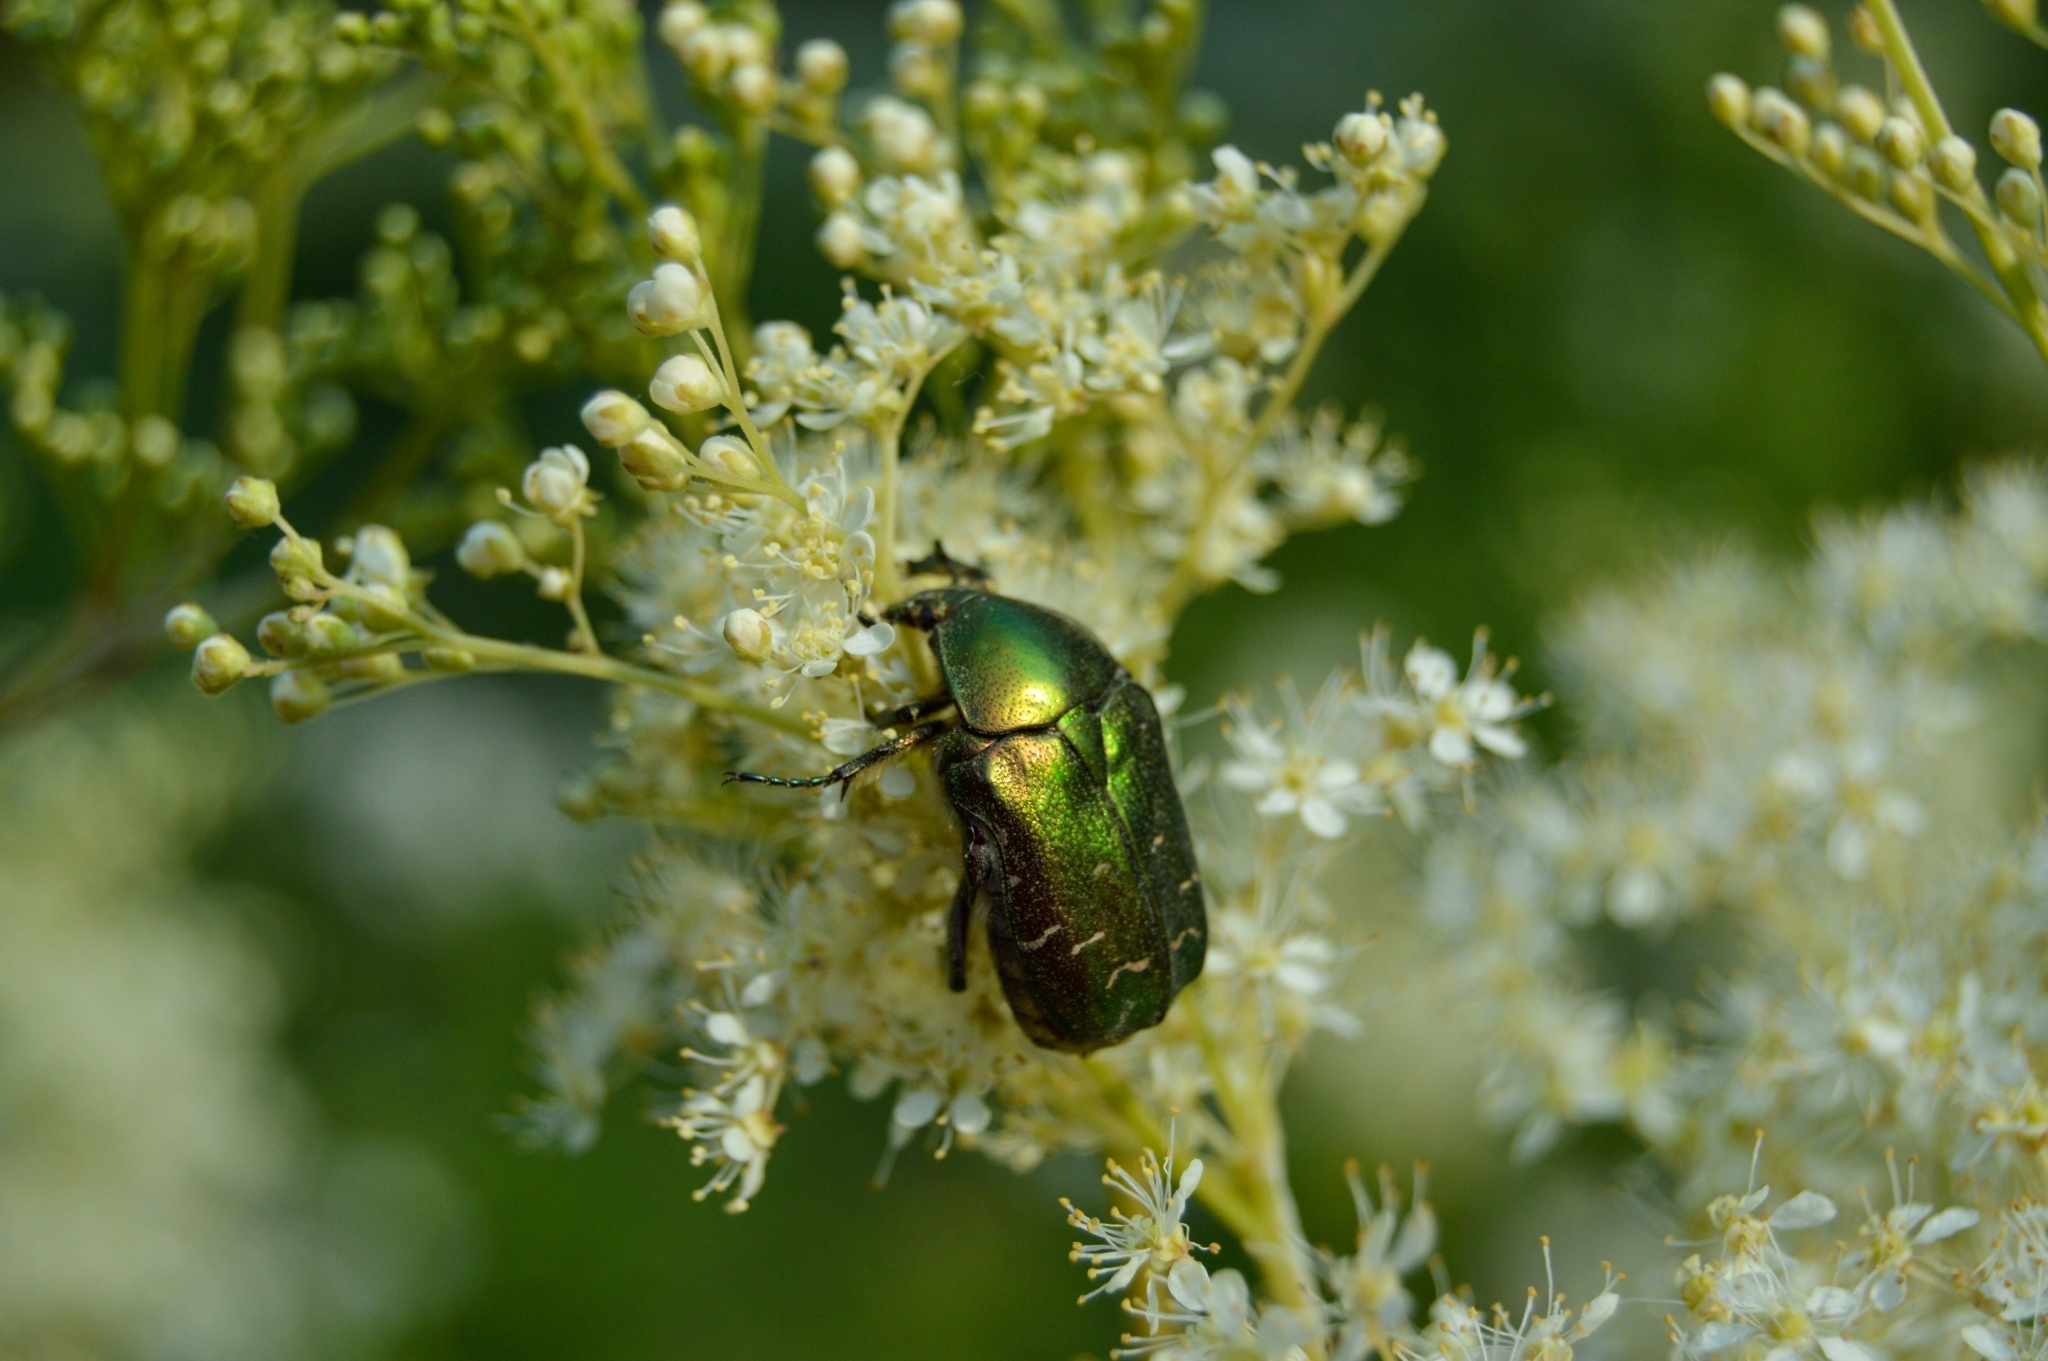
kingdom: Animalia
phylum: Arthropoda
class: Insecta
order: Coleoptera
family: Scarabaeidae
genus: Cetonia
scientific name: Cetonia aurata
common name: Rose chafer
